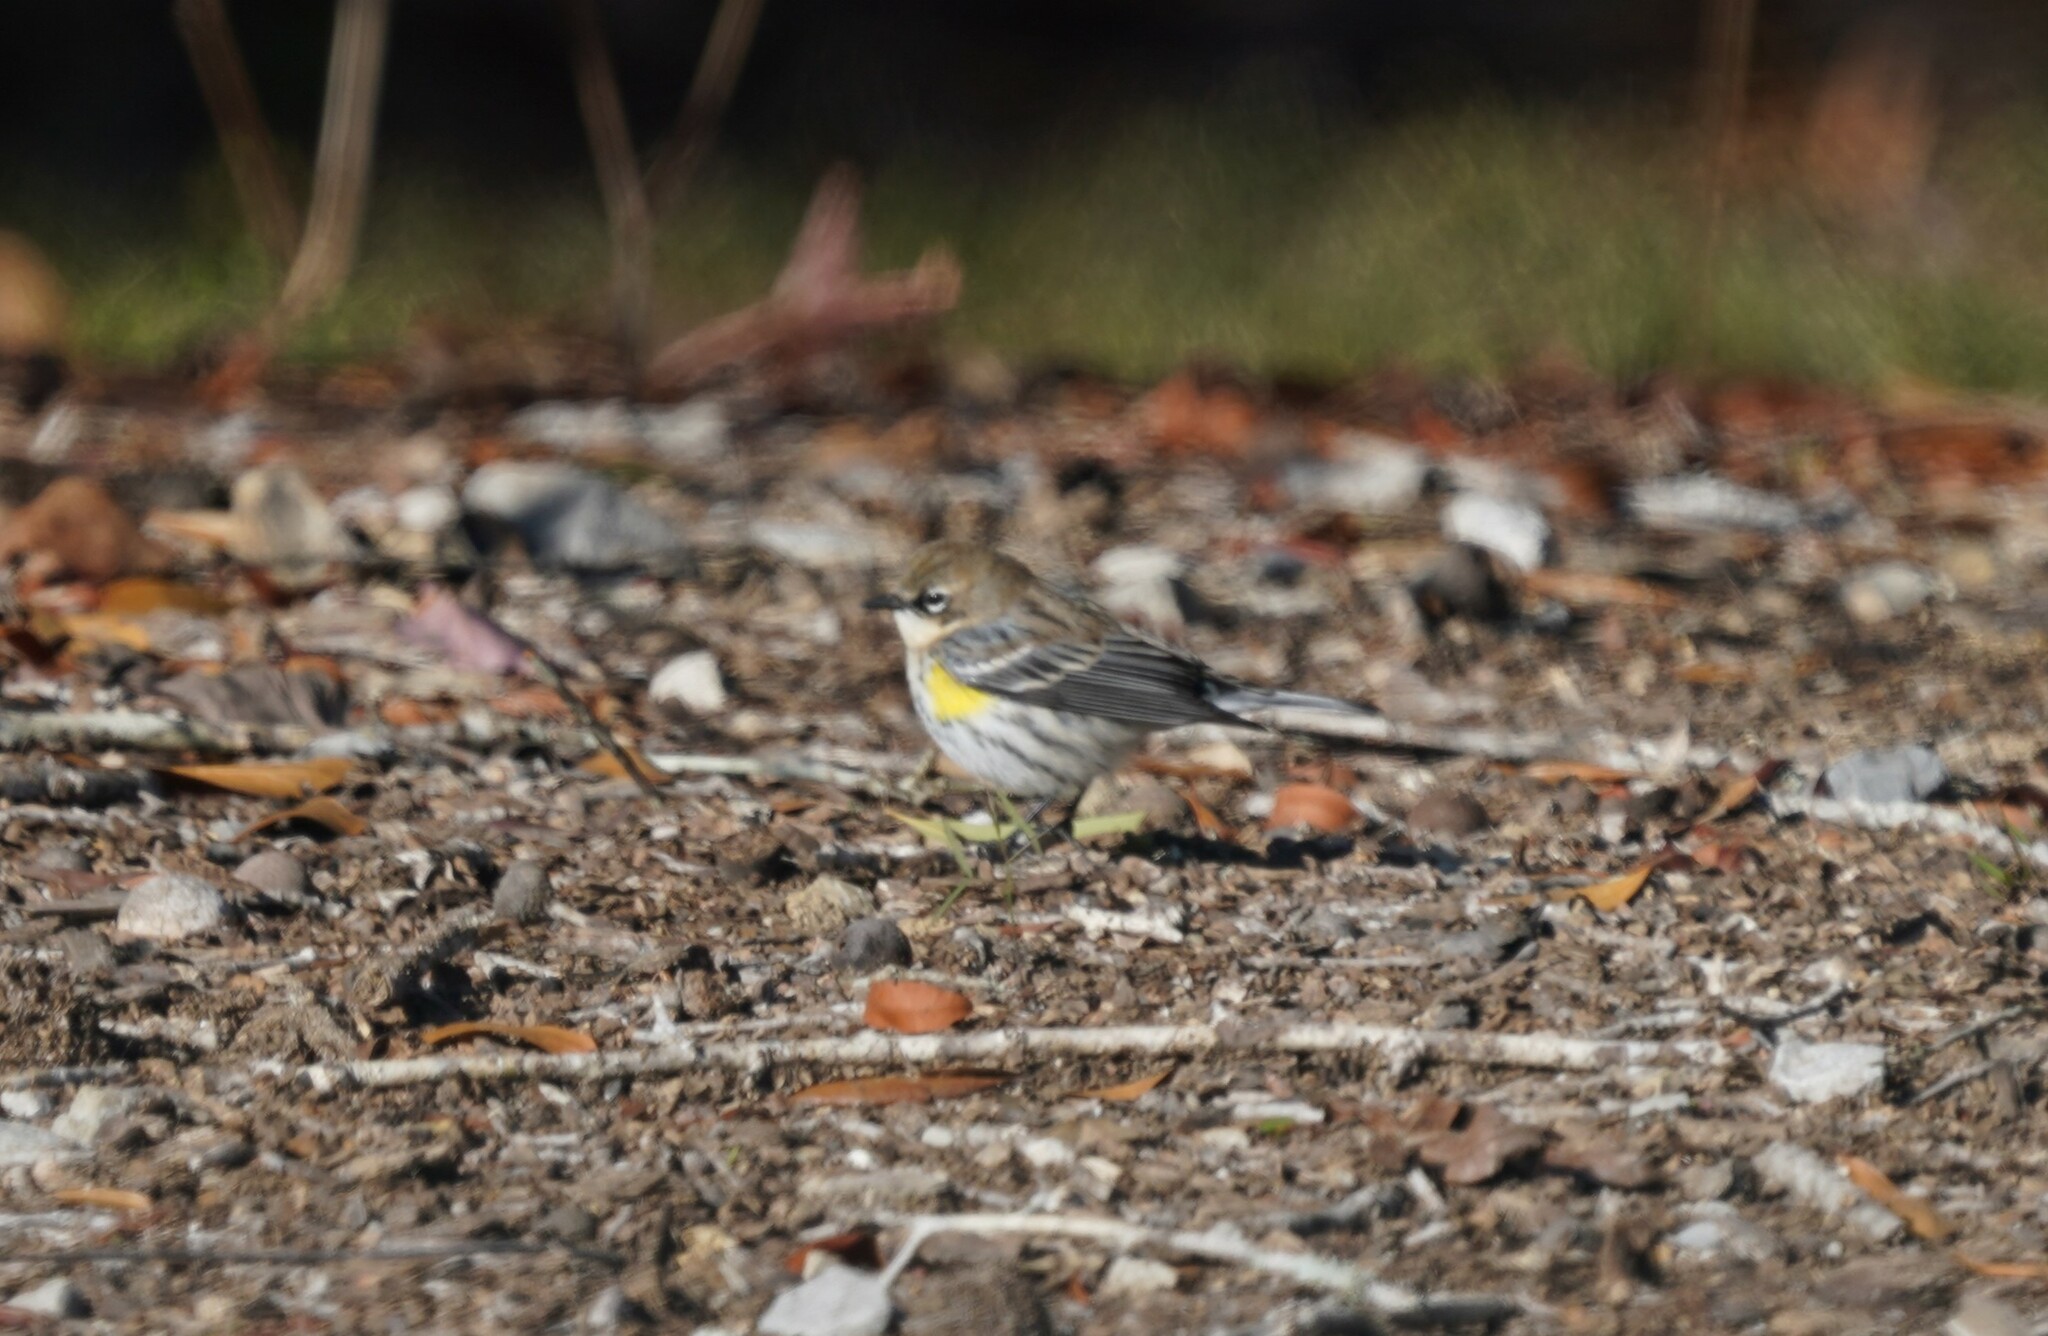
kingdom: Animalia
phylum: Chordata
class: Aves
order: Passeriformes
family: Parulidae
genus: Setophaga
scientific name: Setophaga coronata
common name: Myrtle warbler
